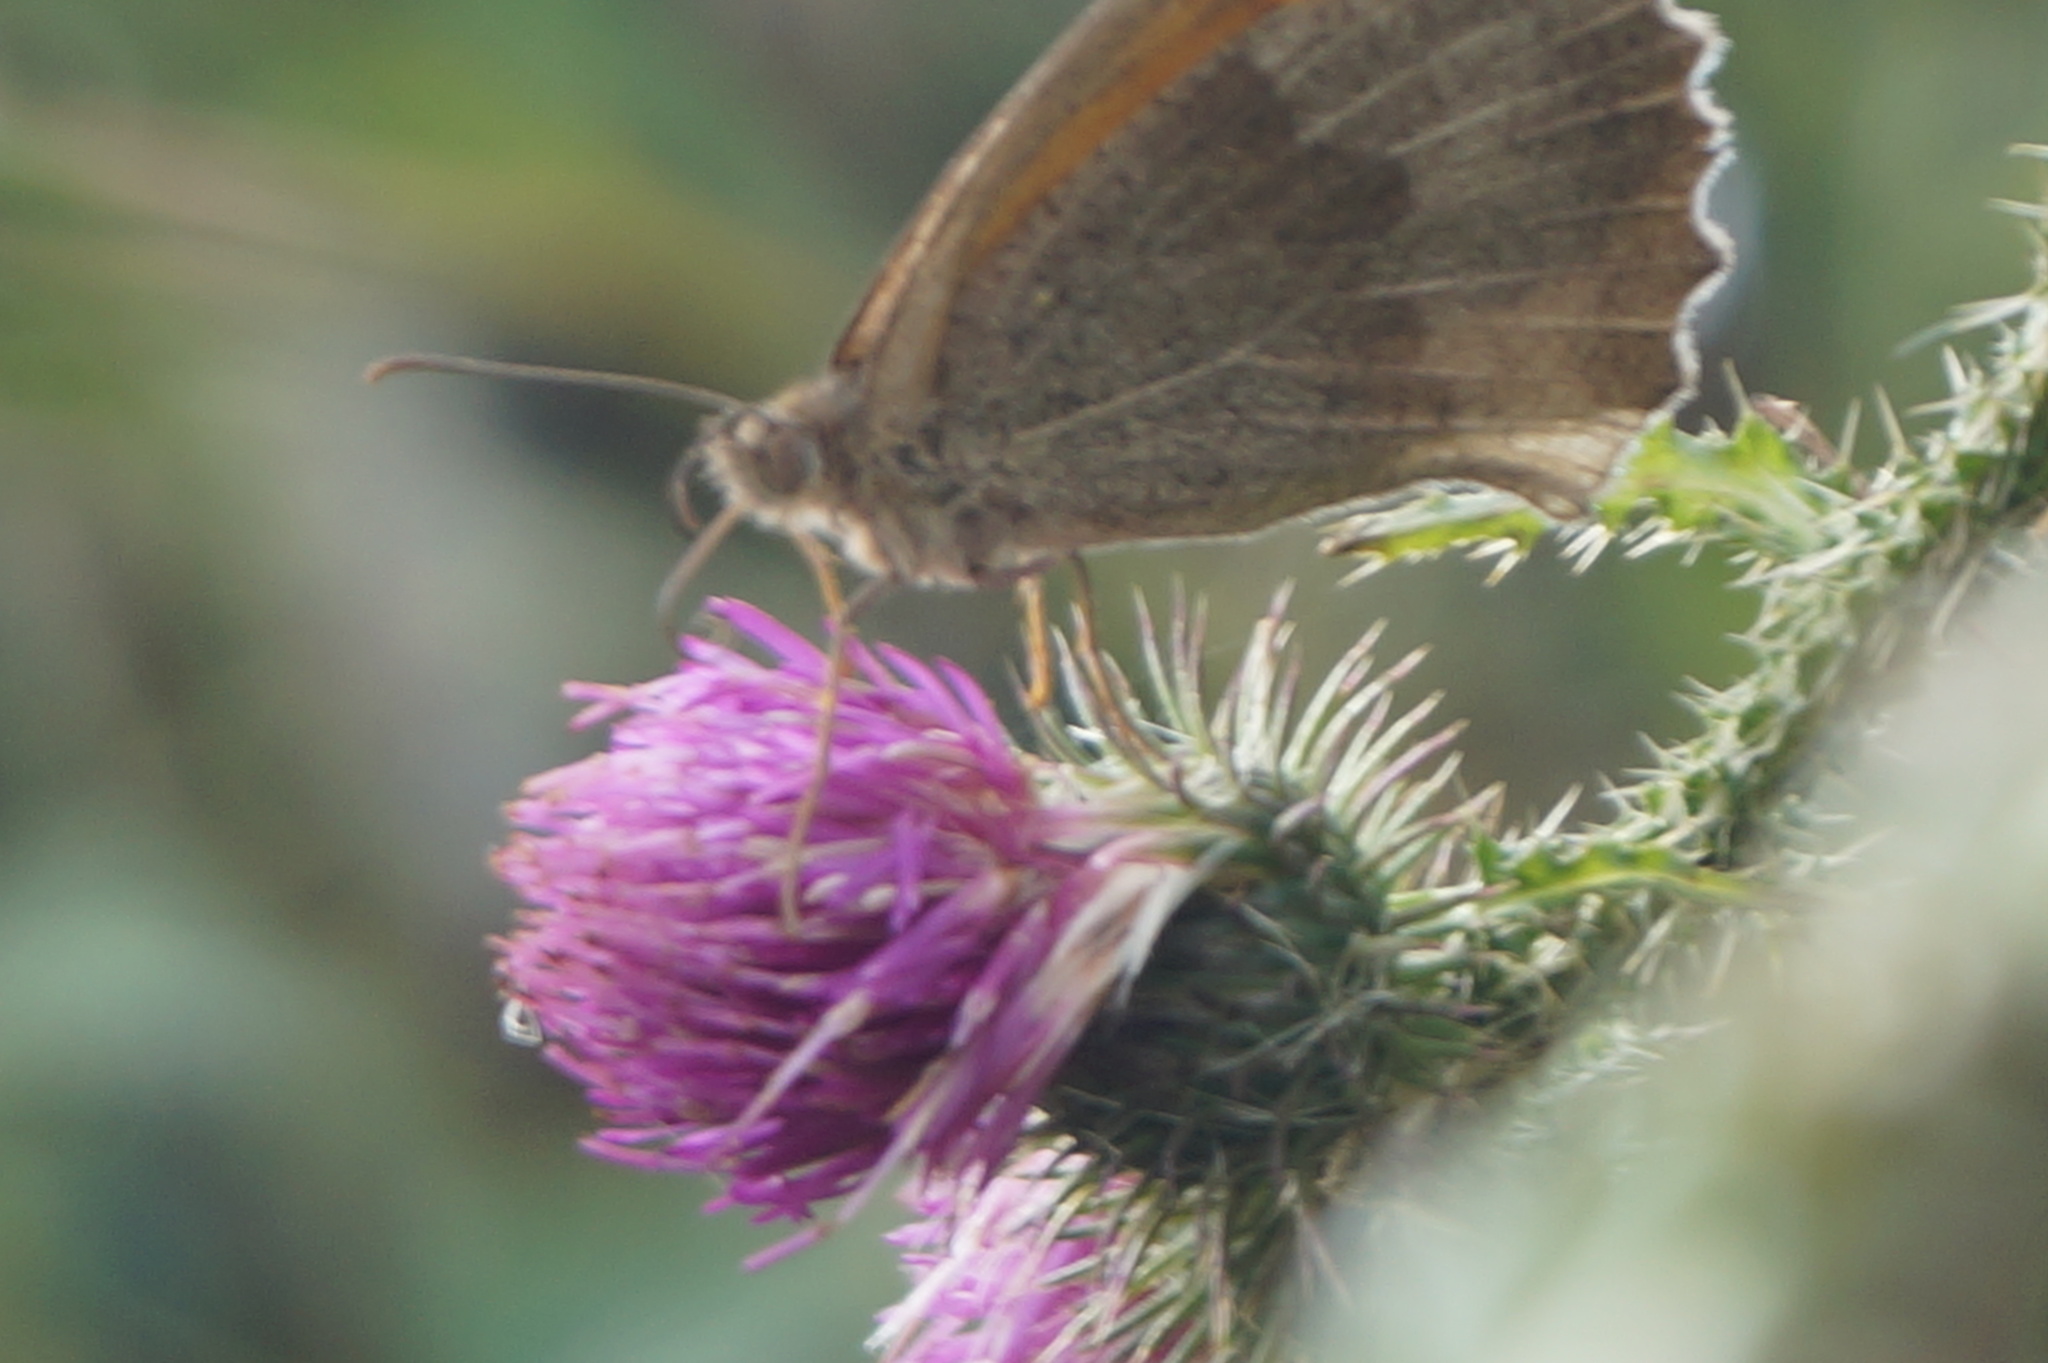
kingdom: Animalia
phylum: Arthropoda
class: Insecta
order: Lepidoptera
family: Nymphalidae
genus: Maniola
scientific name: Maniola jurtina
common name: Meadow brown
